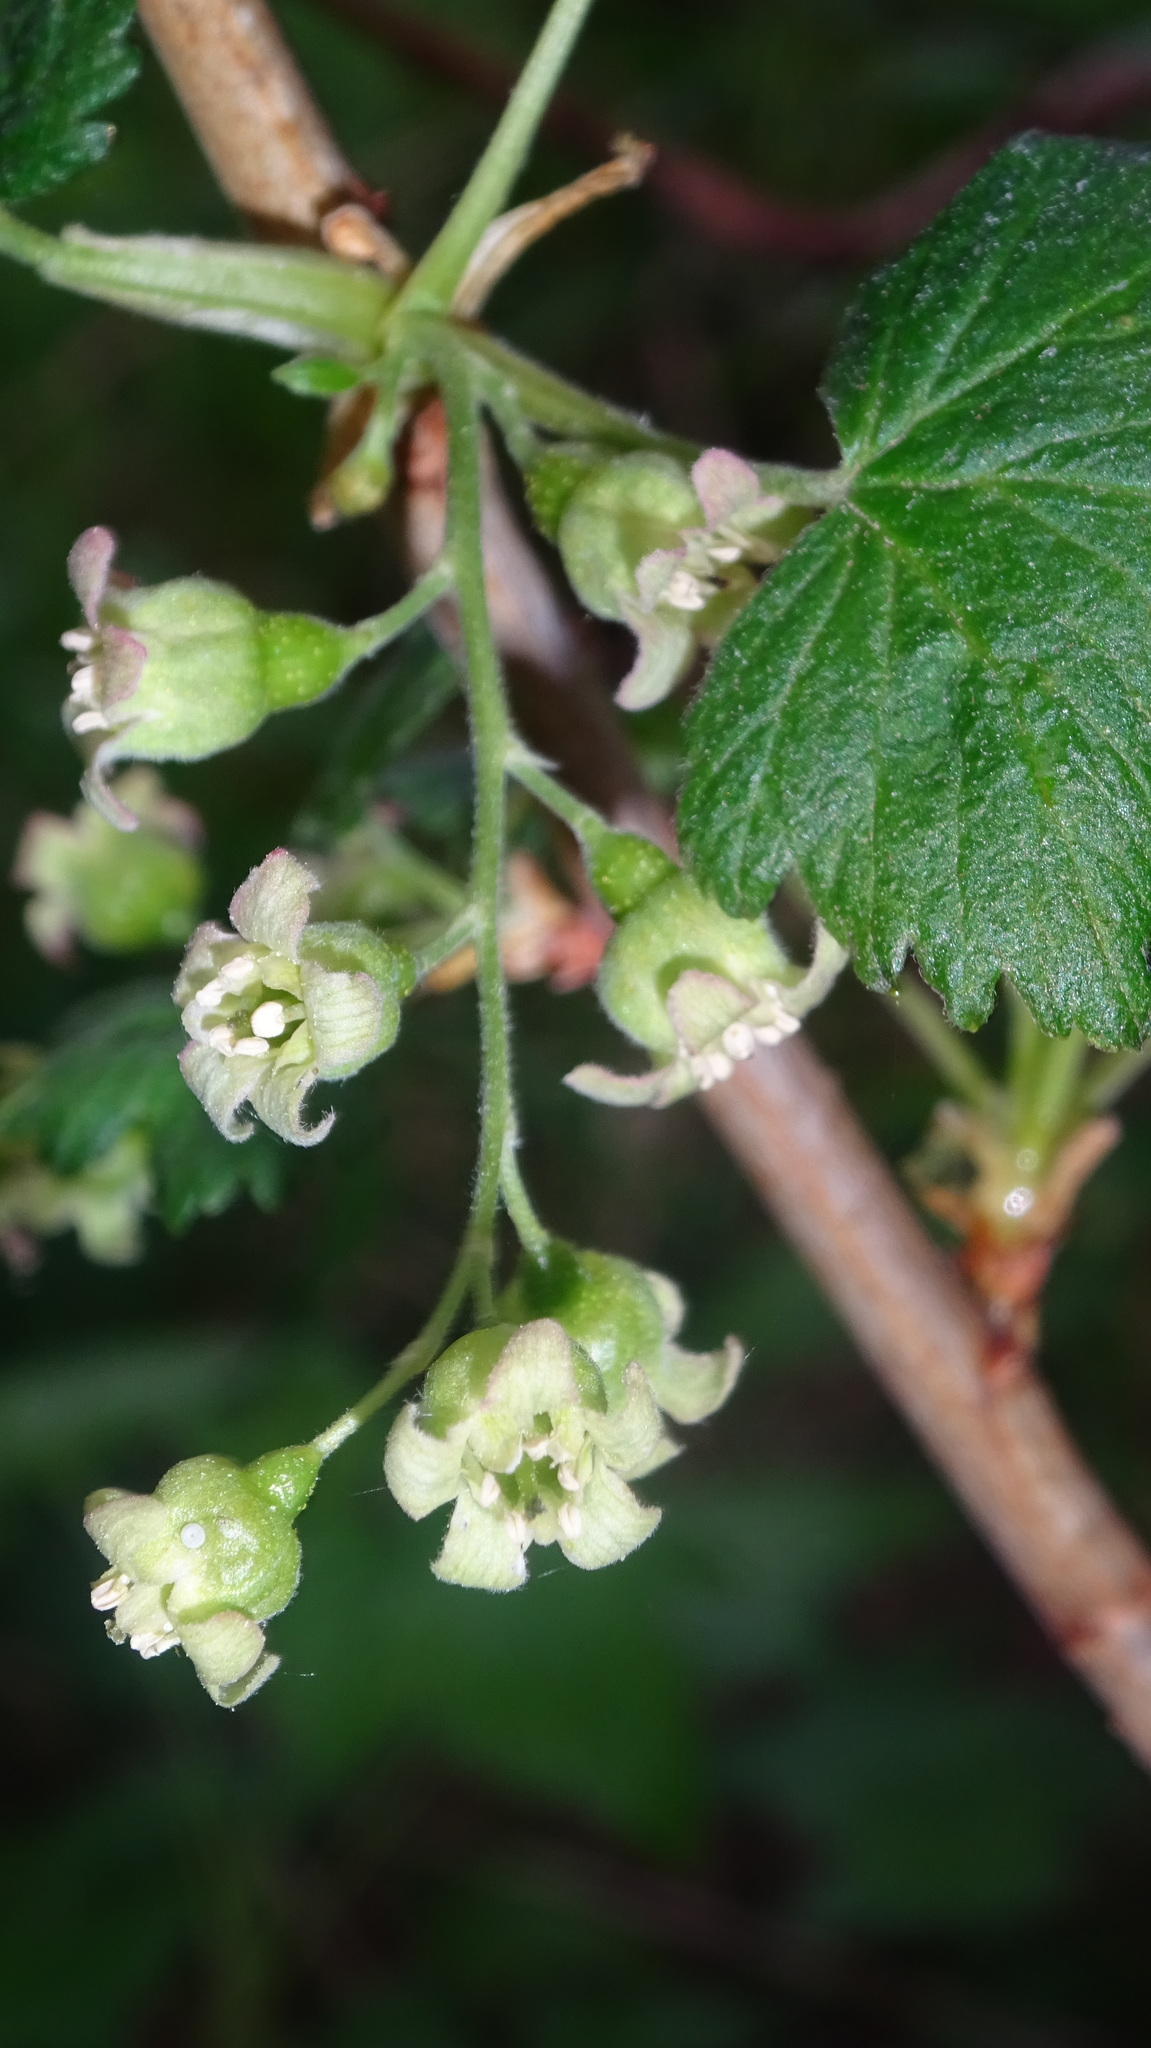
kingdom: Plantae
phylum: Tracheophyta
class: Magnoliopsida
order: Saxifragales
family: Grossulariaceae
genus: Ribes
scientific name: Ribes nigrum
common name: Black currant
